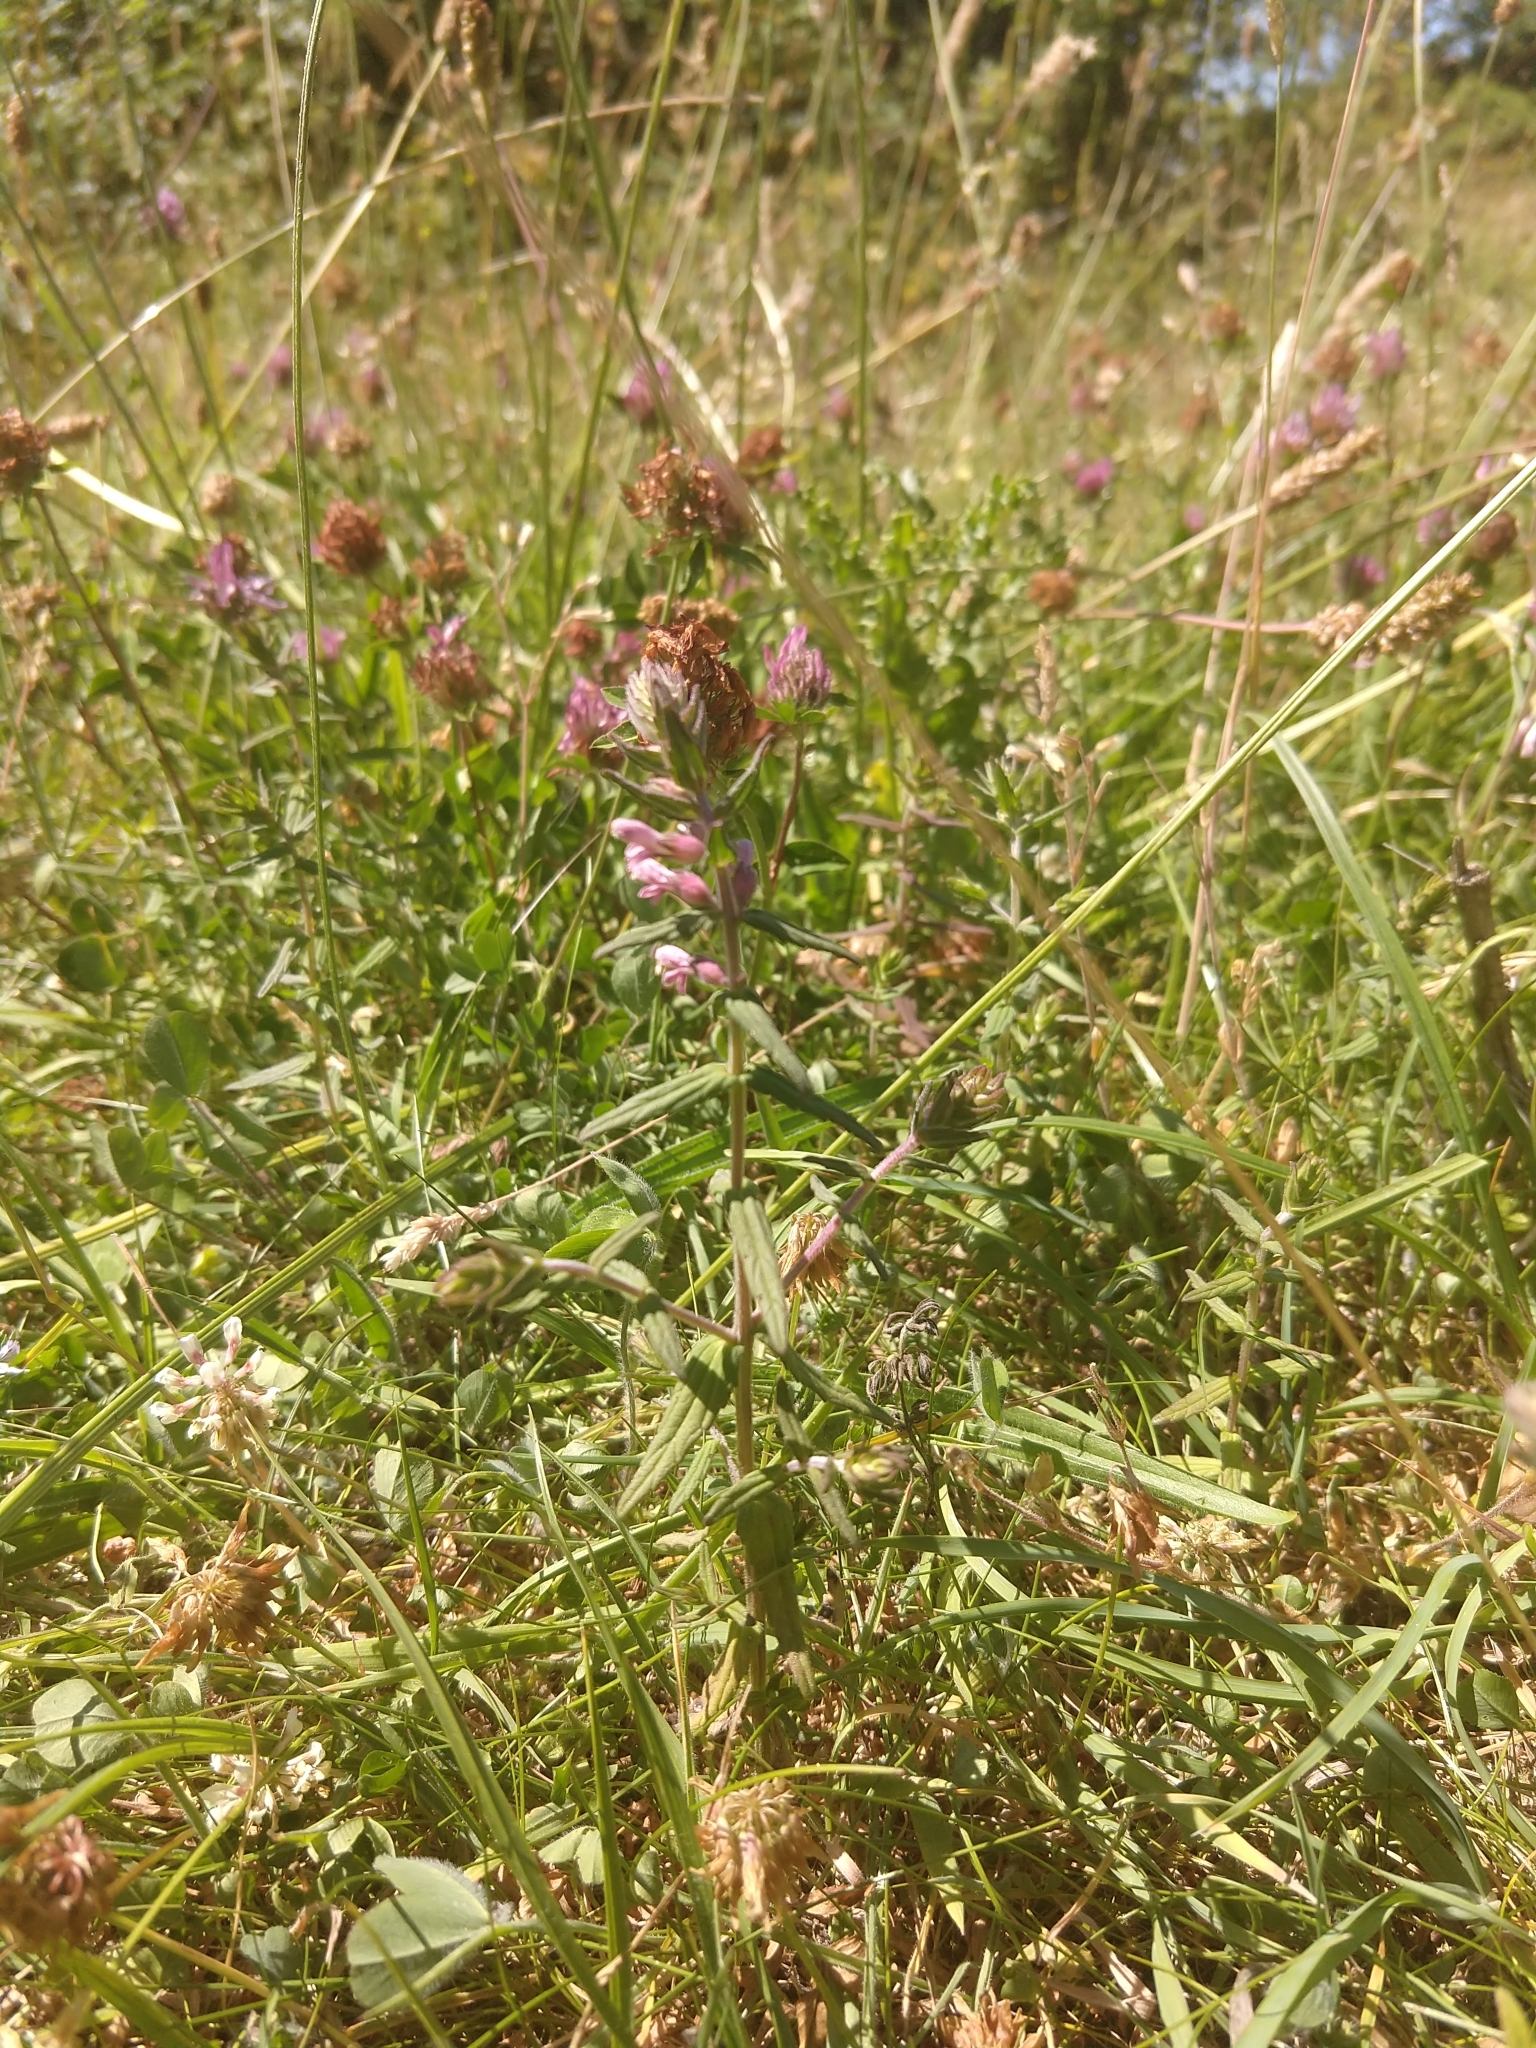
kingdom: Plantae
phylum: Tracheophyta
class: Magnoliopsida
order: Lamiales
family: Orobanchaceae
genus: Odontites
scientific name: Odontites vernus
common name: Red bartsia
